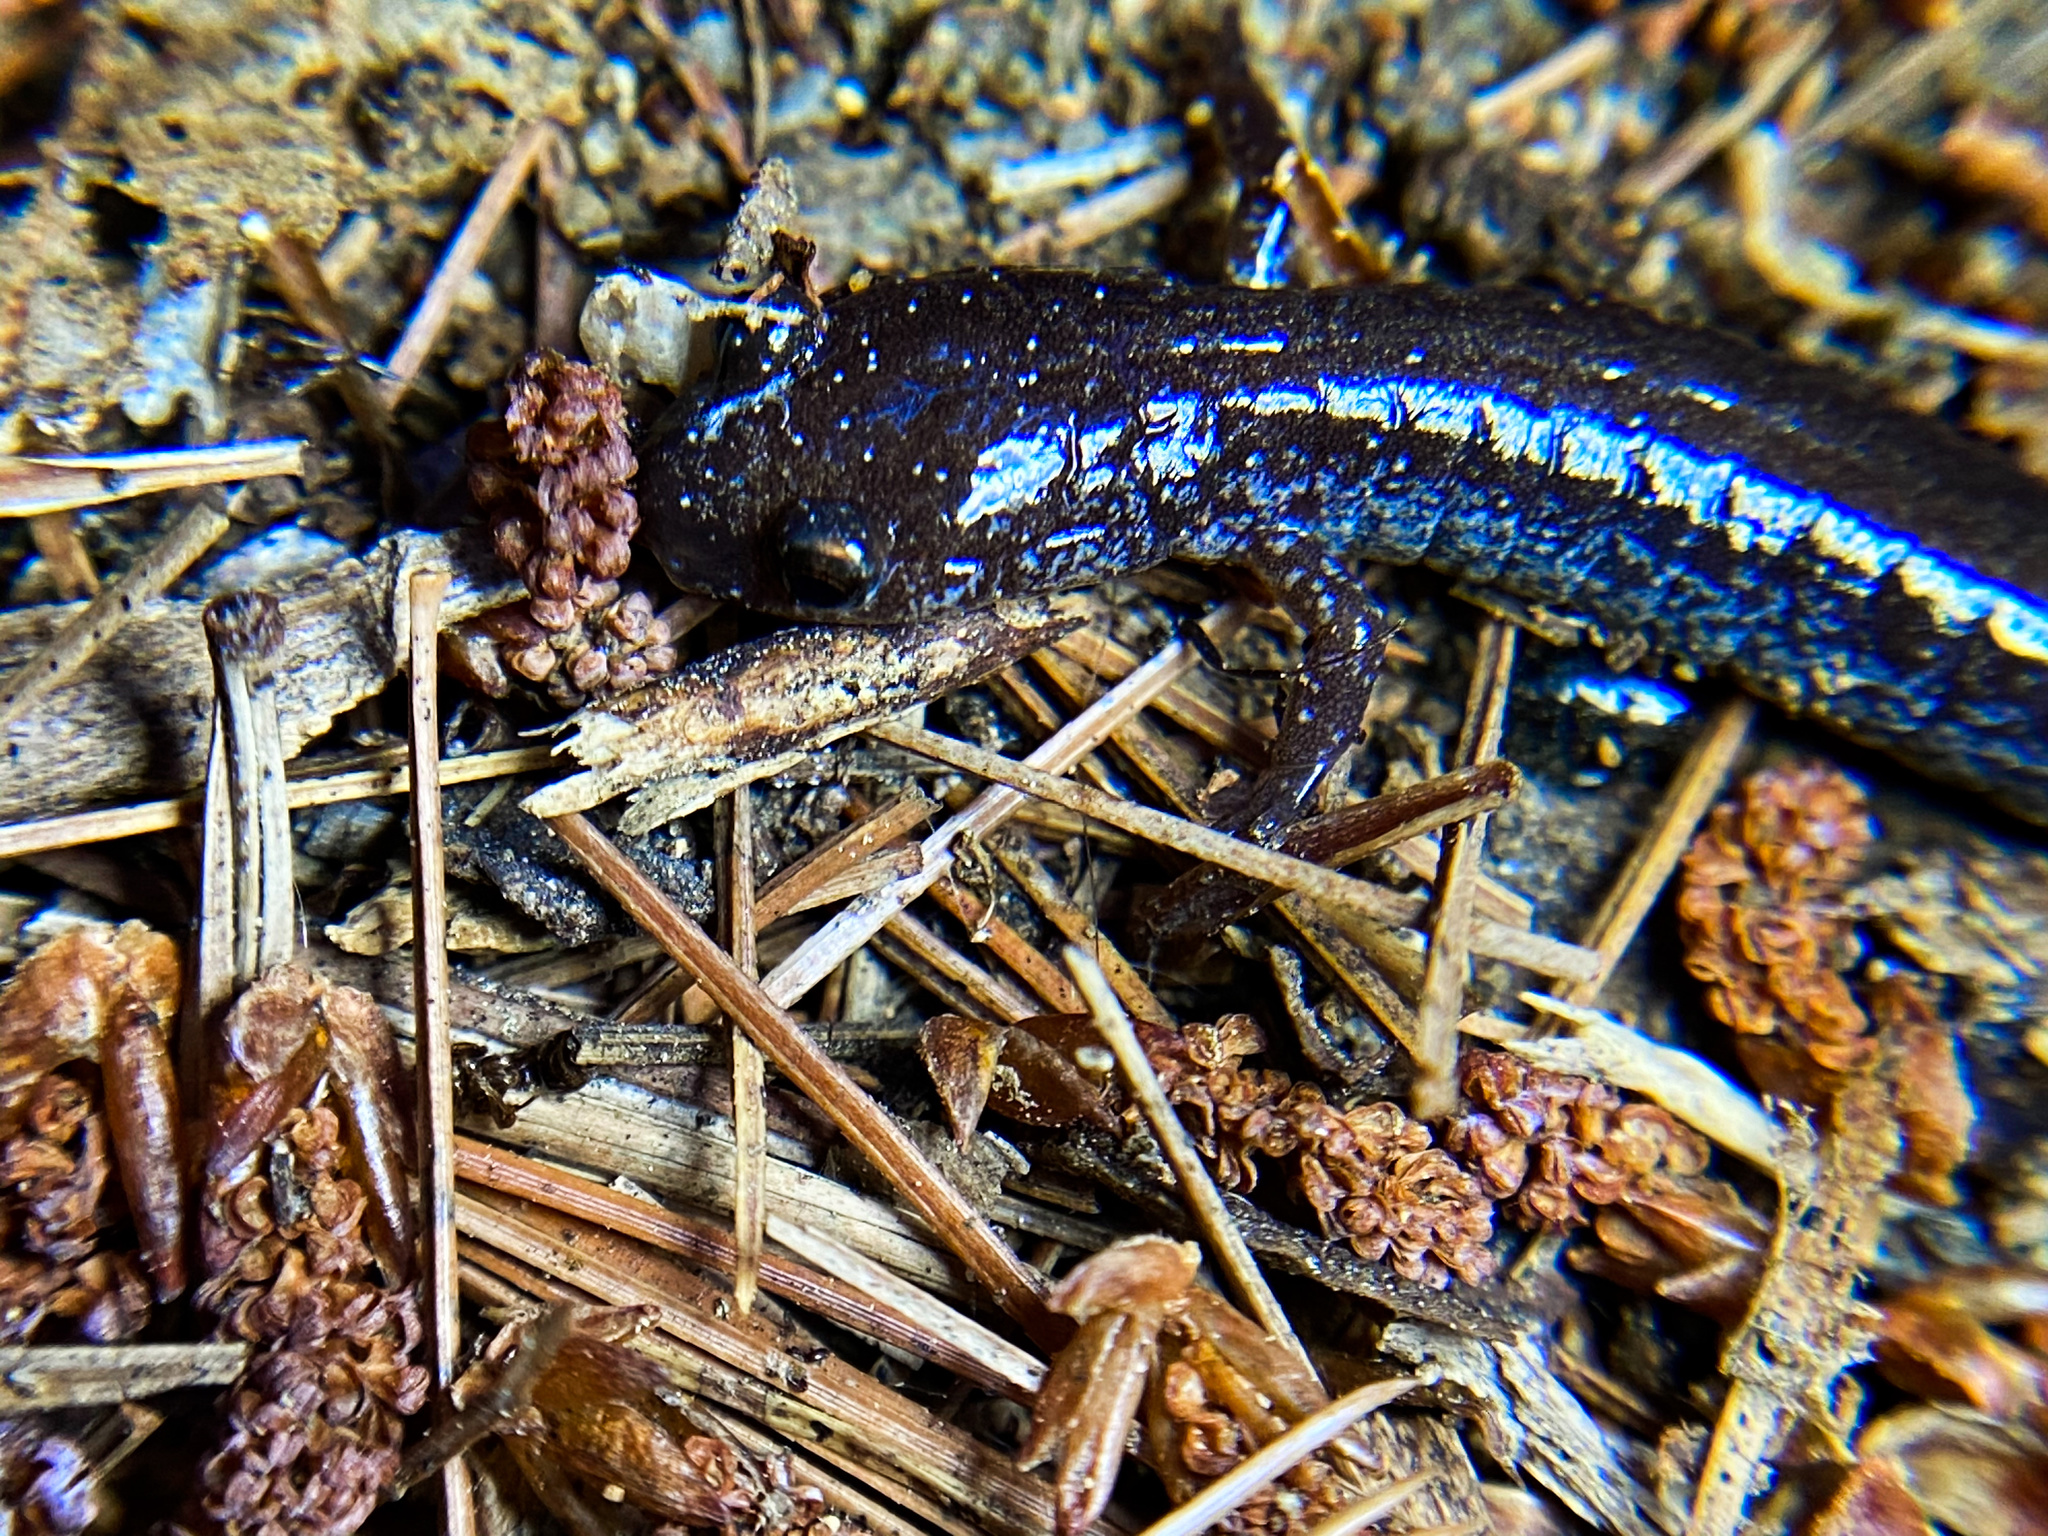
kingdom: Animalia
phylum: Chordata
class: Amphibia
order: Caudata
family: Plethodontidae
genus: Plethodon
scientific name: Plethodon cinereus
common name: Redback salamander
